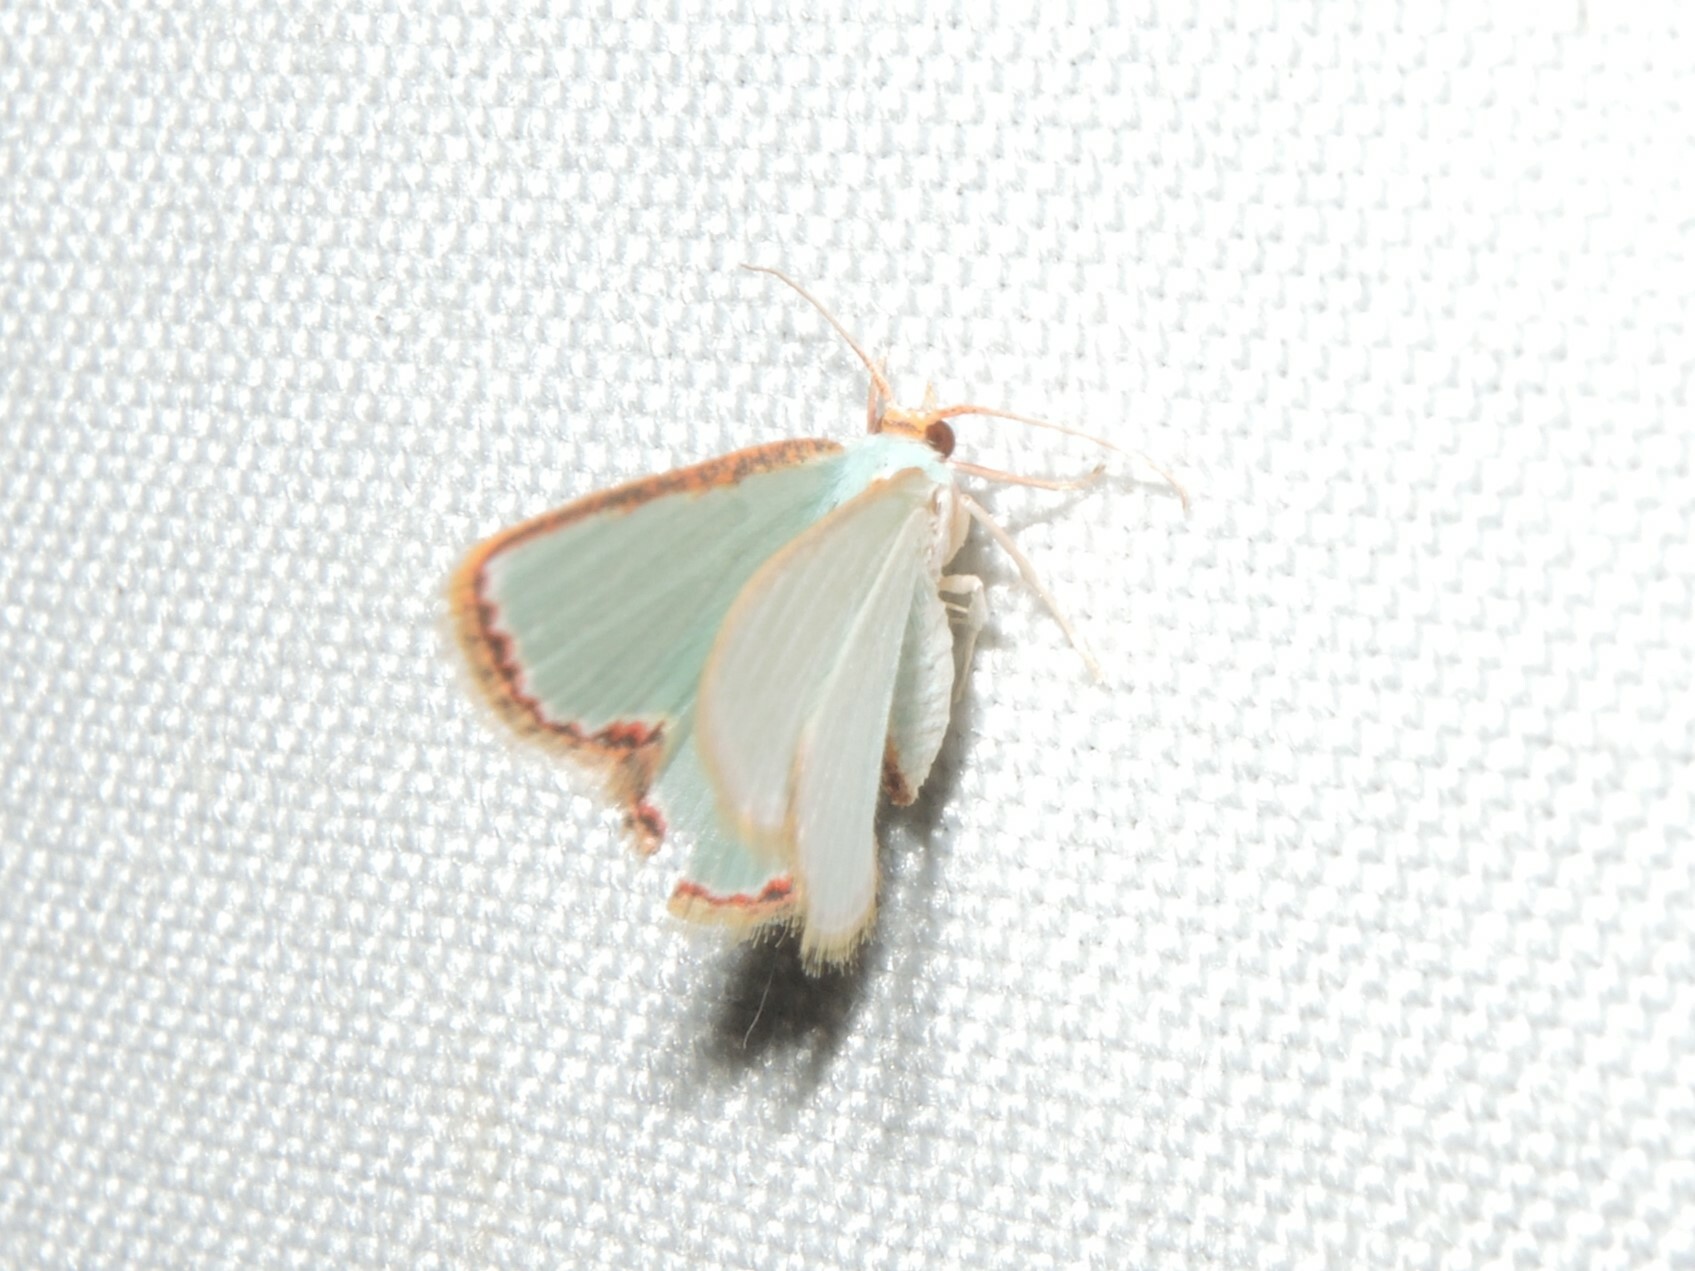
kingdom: Animalia
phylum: Arthropoda
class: Insecta
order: Lepidoptera
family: Geometridae
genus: Comostola
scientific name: Comostola pyrrhogona
